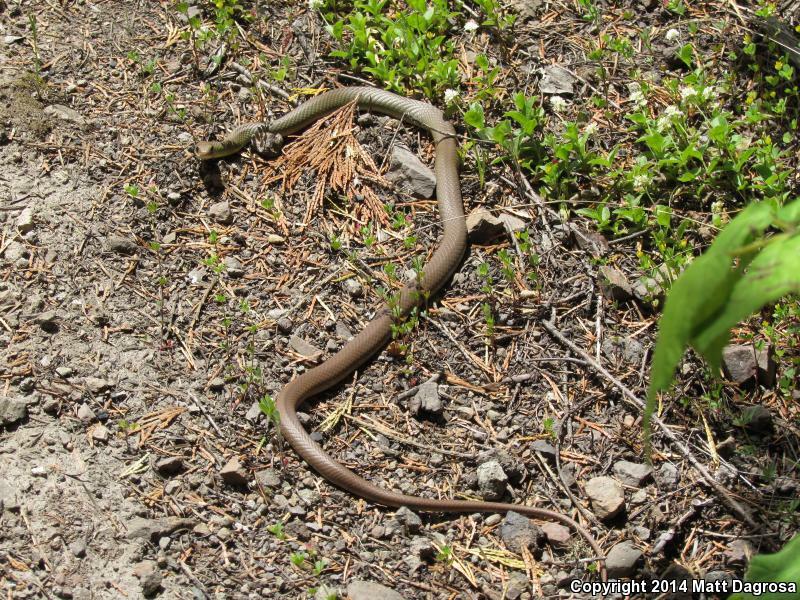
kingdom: Animalia
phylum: Chordata
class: Squamata
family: Colubridae
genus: Coluber
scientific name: Coluber constrictor
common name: Eastern racer
